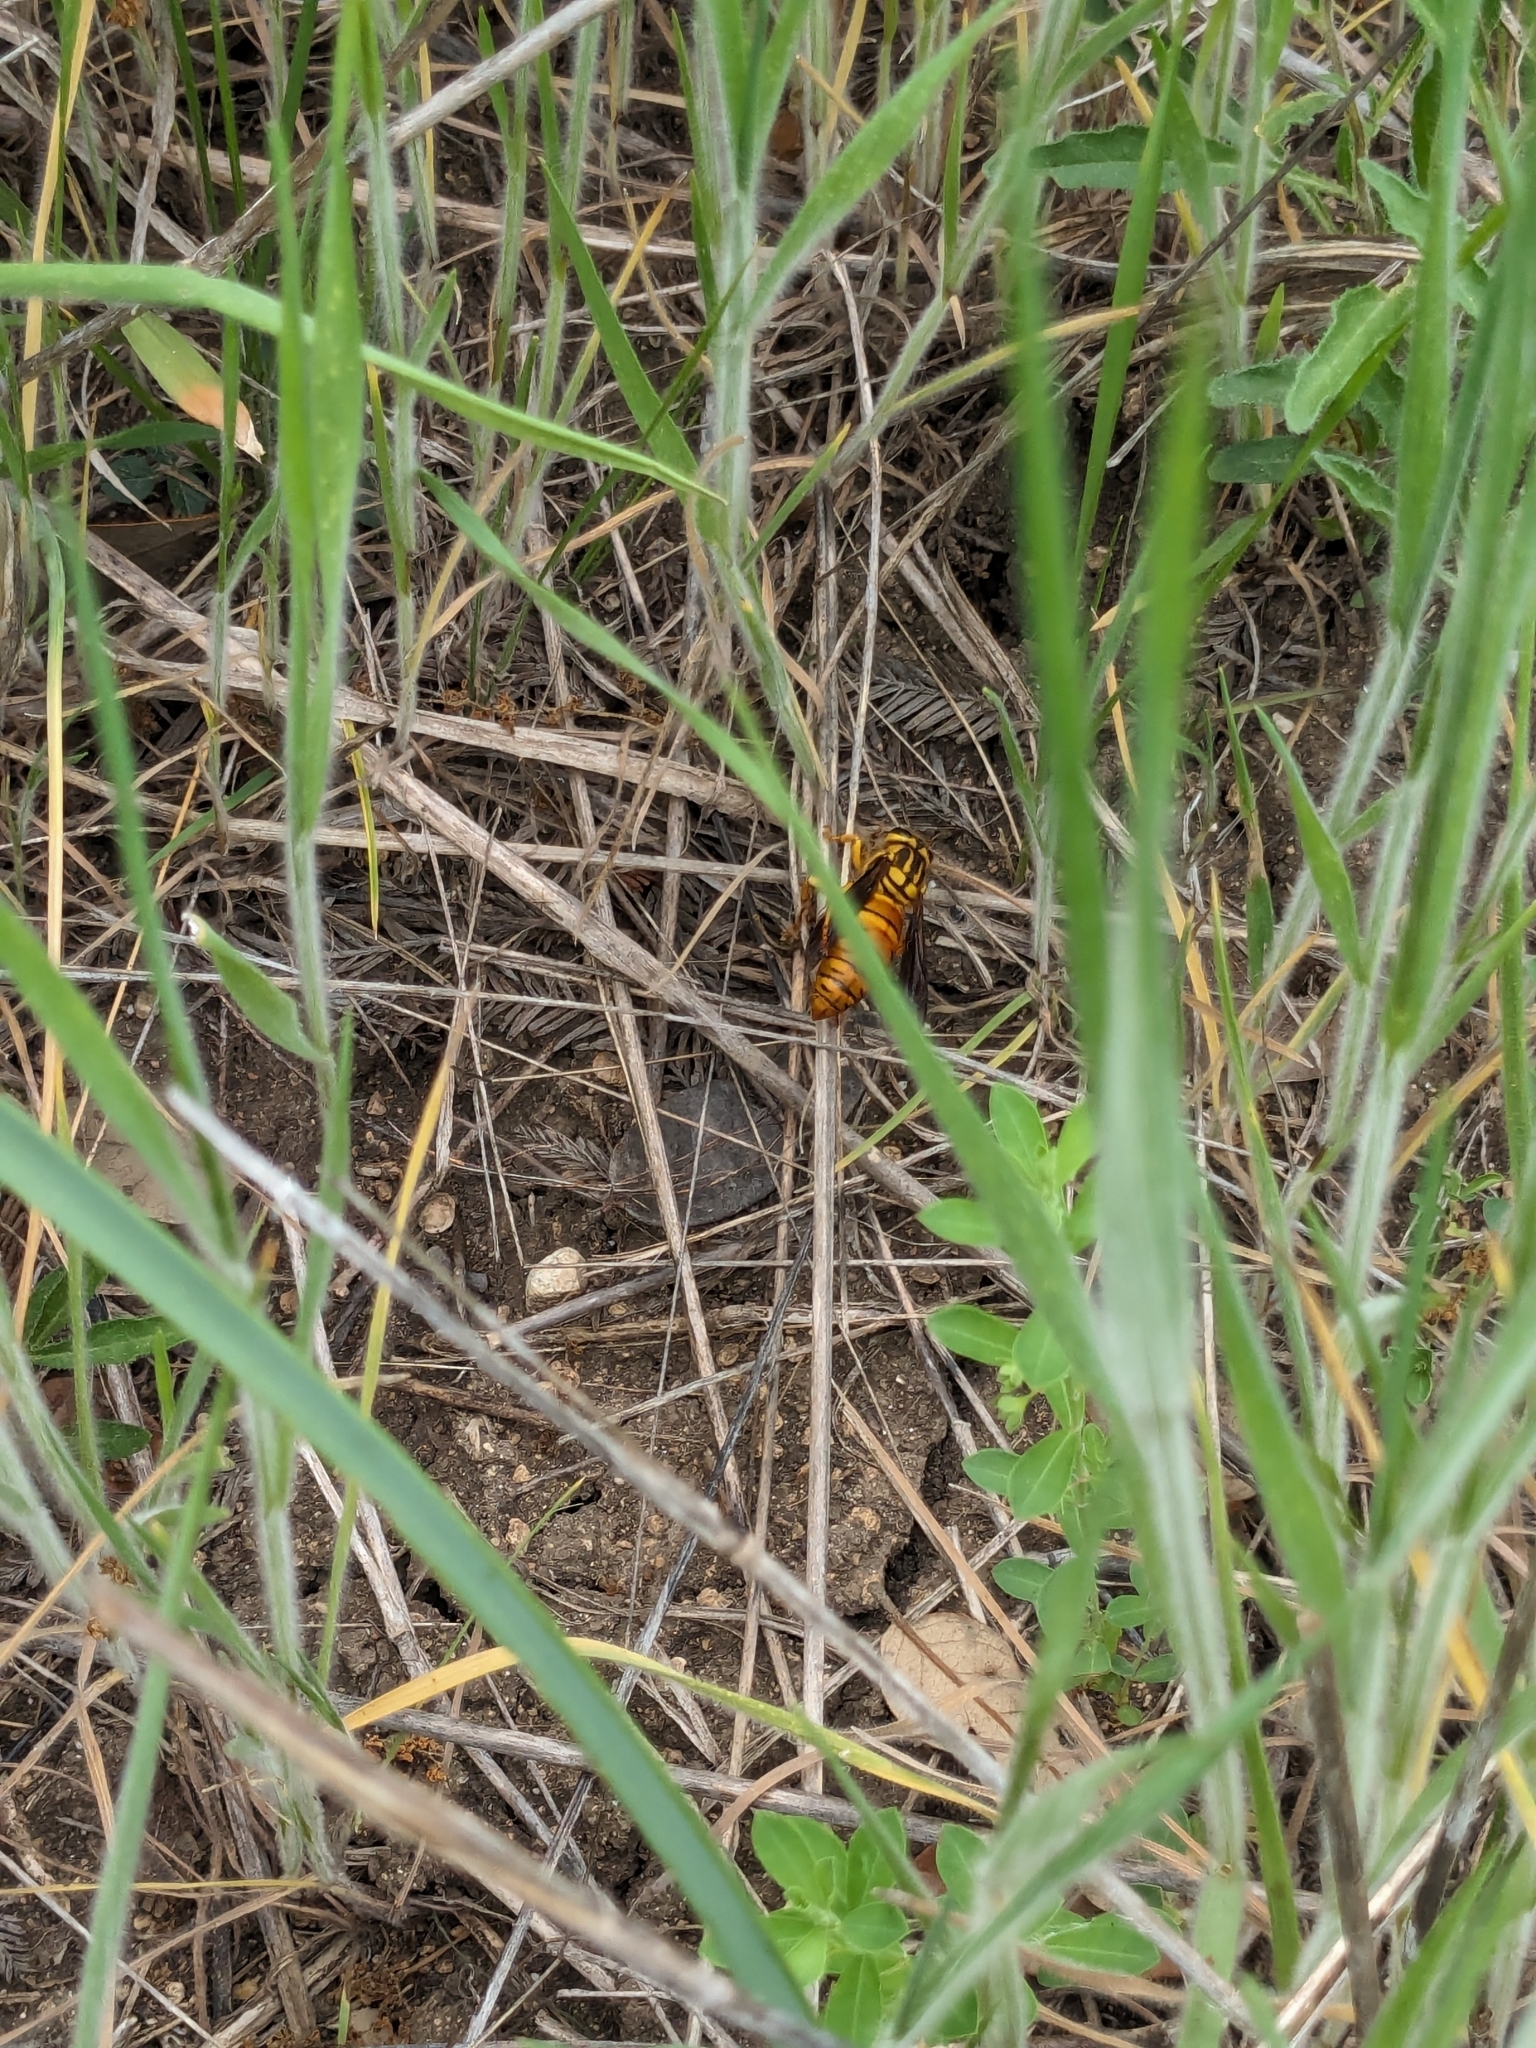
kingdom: Animalia
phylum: Arthropoda
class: Insecta
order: Hymenoptera
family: Vespidae
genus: Vespula
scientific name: Vespula squamosa
